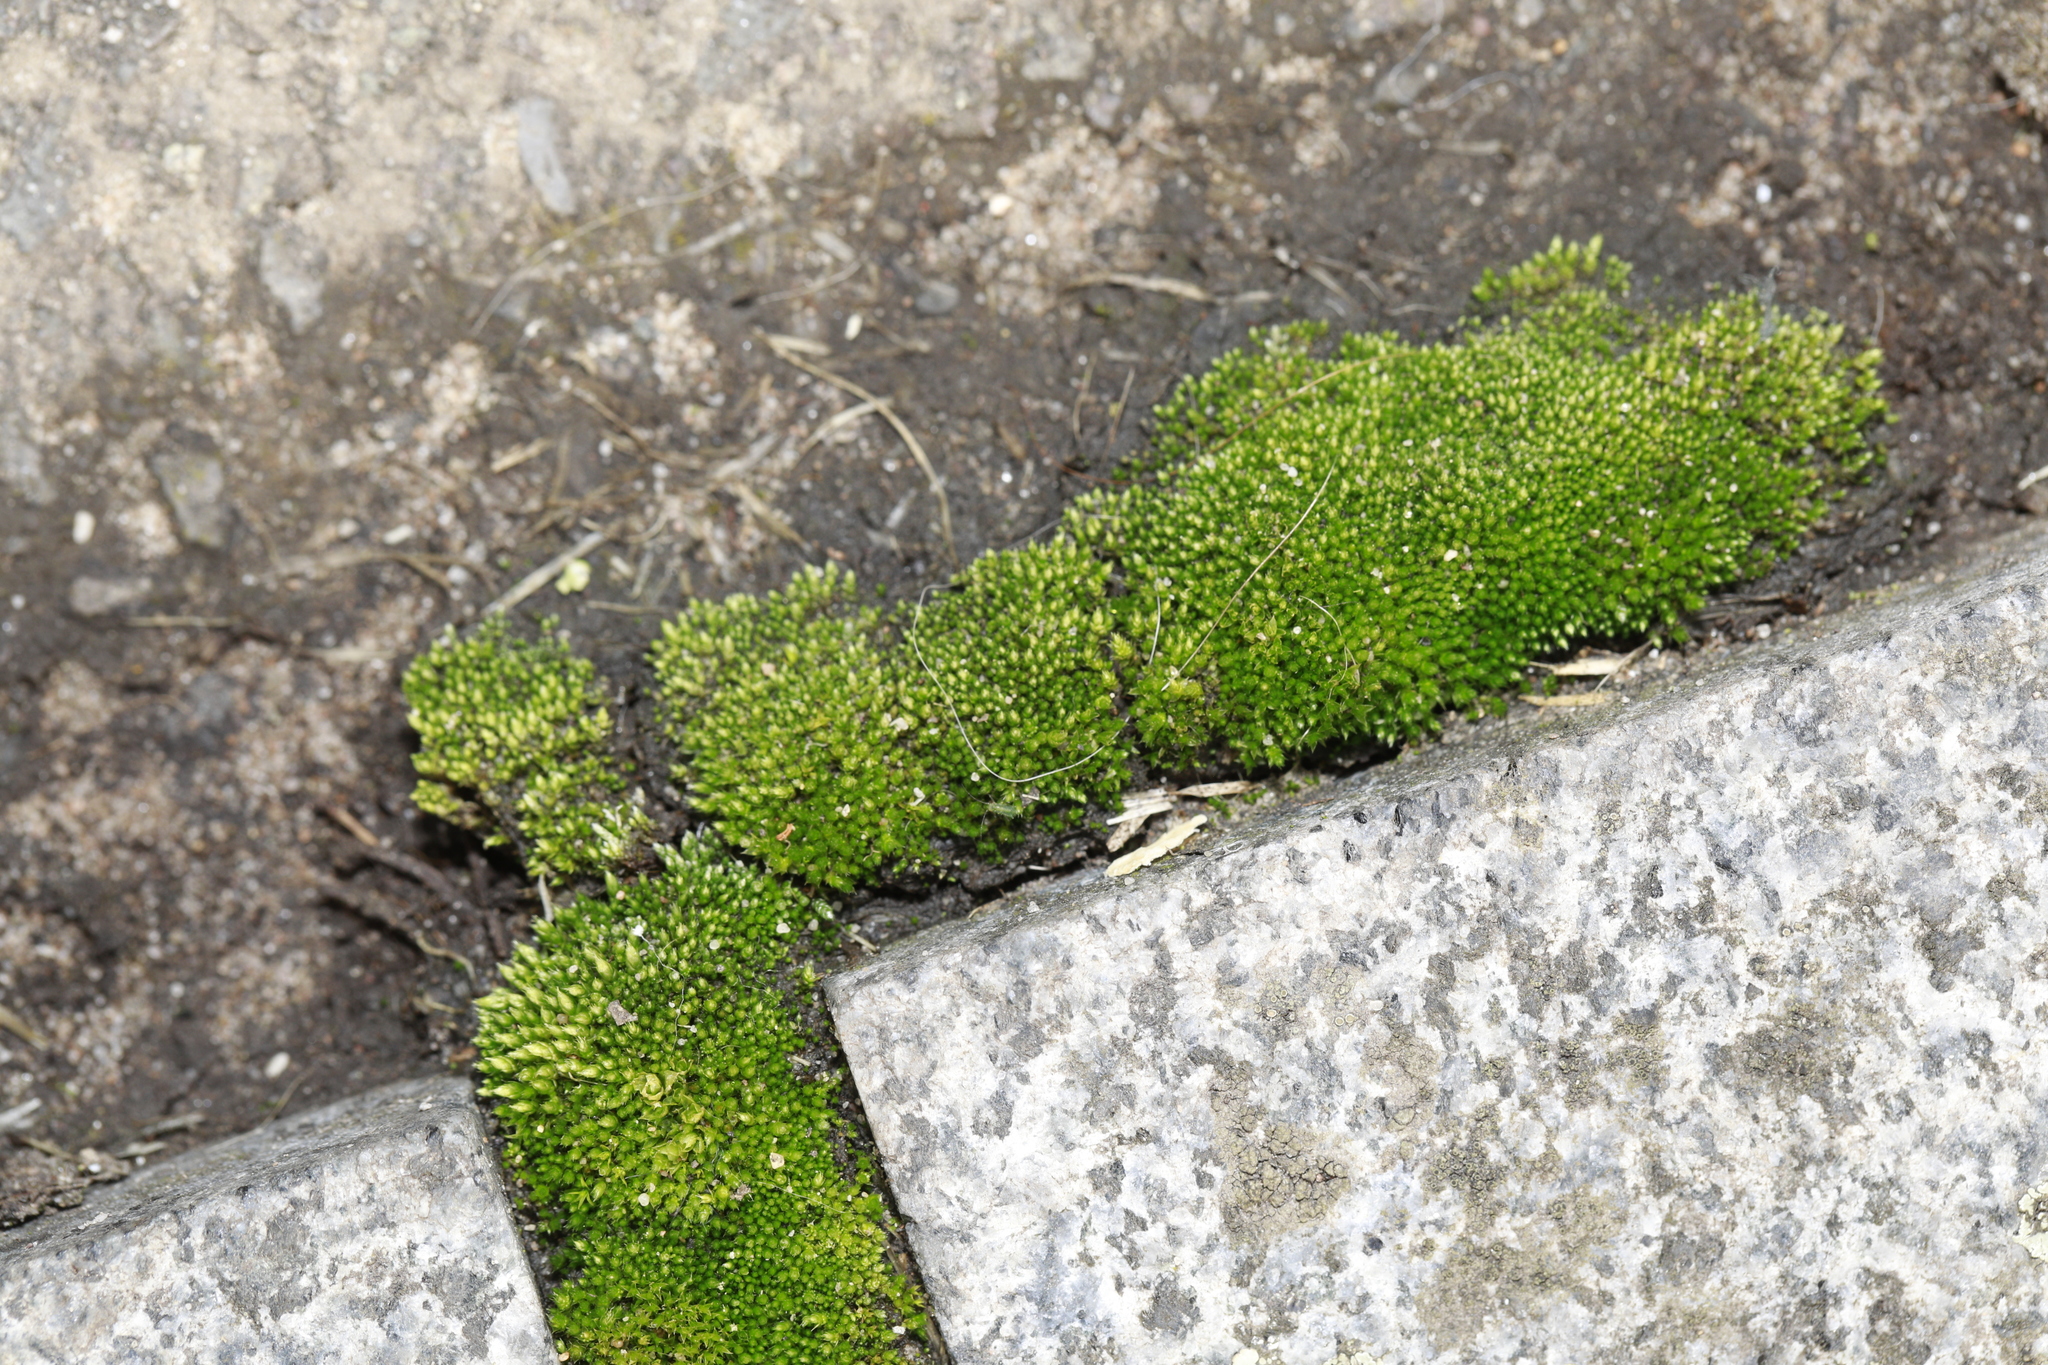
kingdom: Plantae
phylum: Bryophyta
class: Bryopsida
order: Bryales
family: Bryaceae
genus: Bryum
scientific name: Bryum argenteum
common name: Silver-moss
